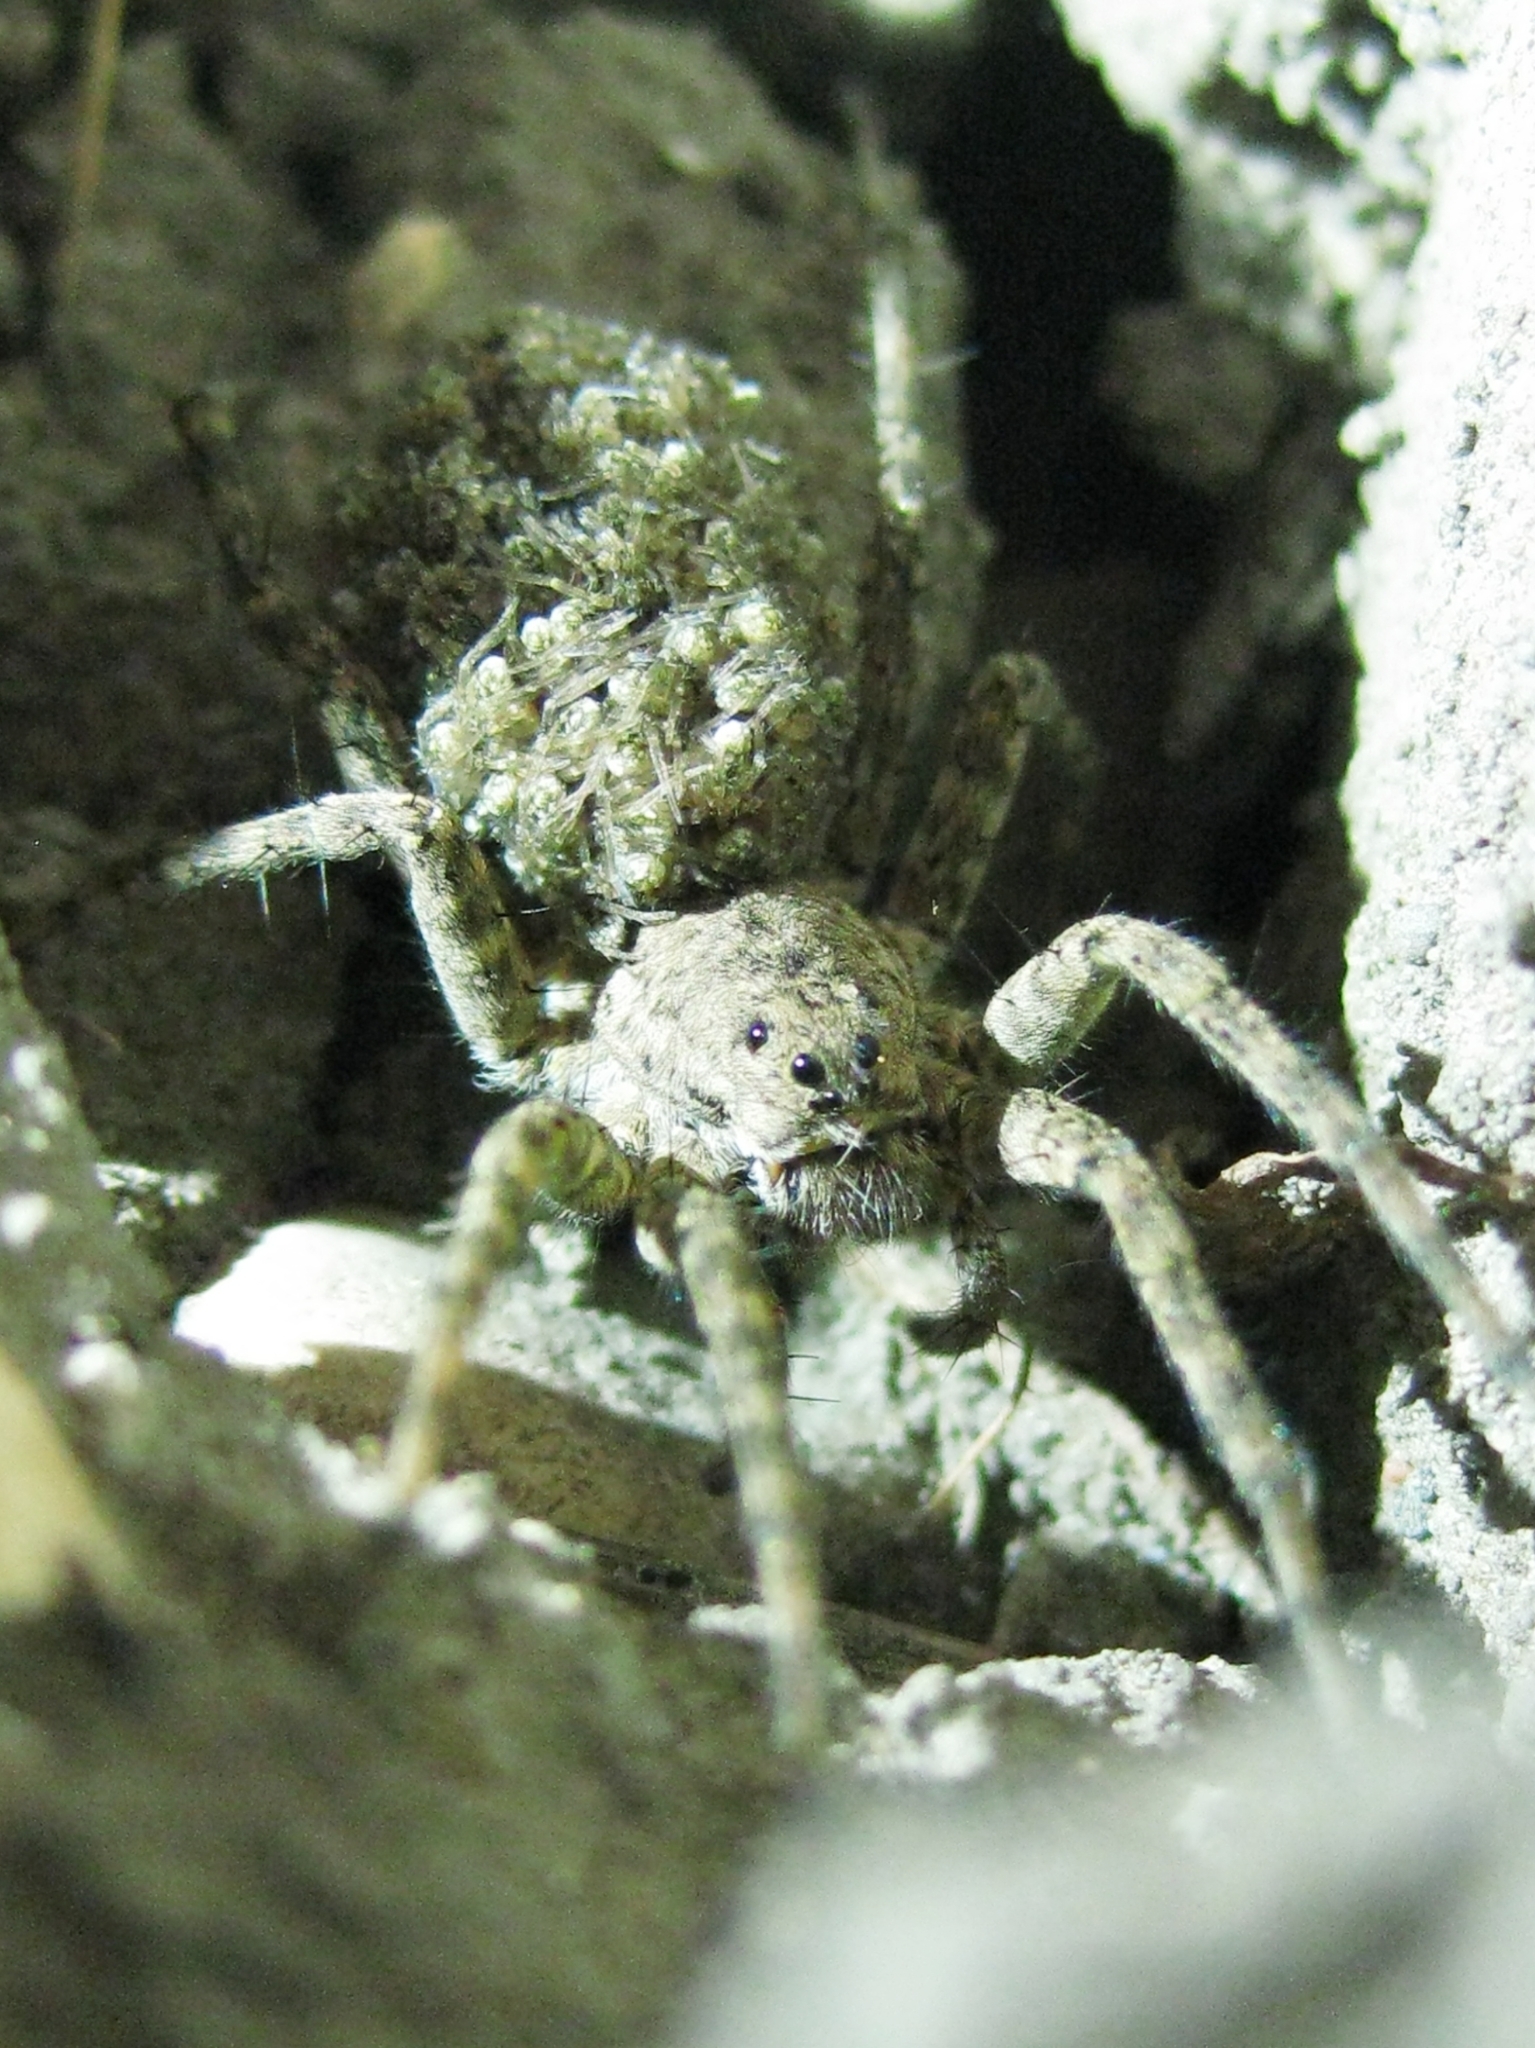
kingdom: Animalia
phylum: Arthropoda
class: Arachnida
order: Araneae
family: Lycosidae
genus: Arctosa
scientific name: Arctosa
